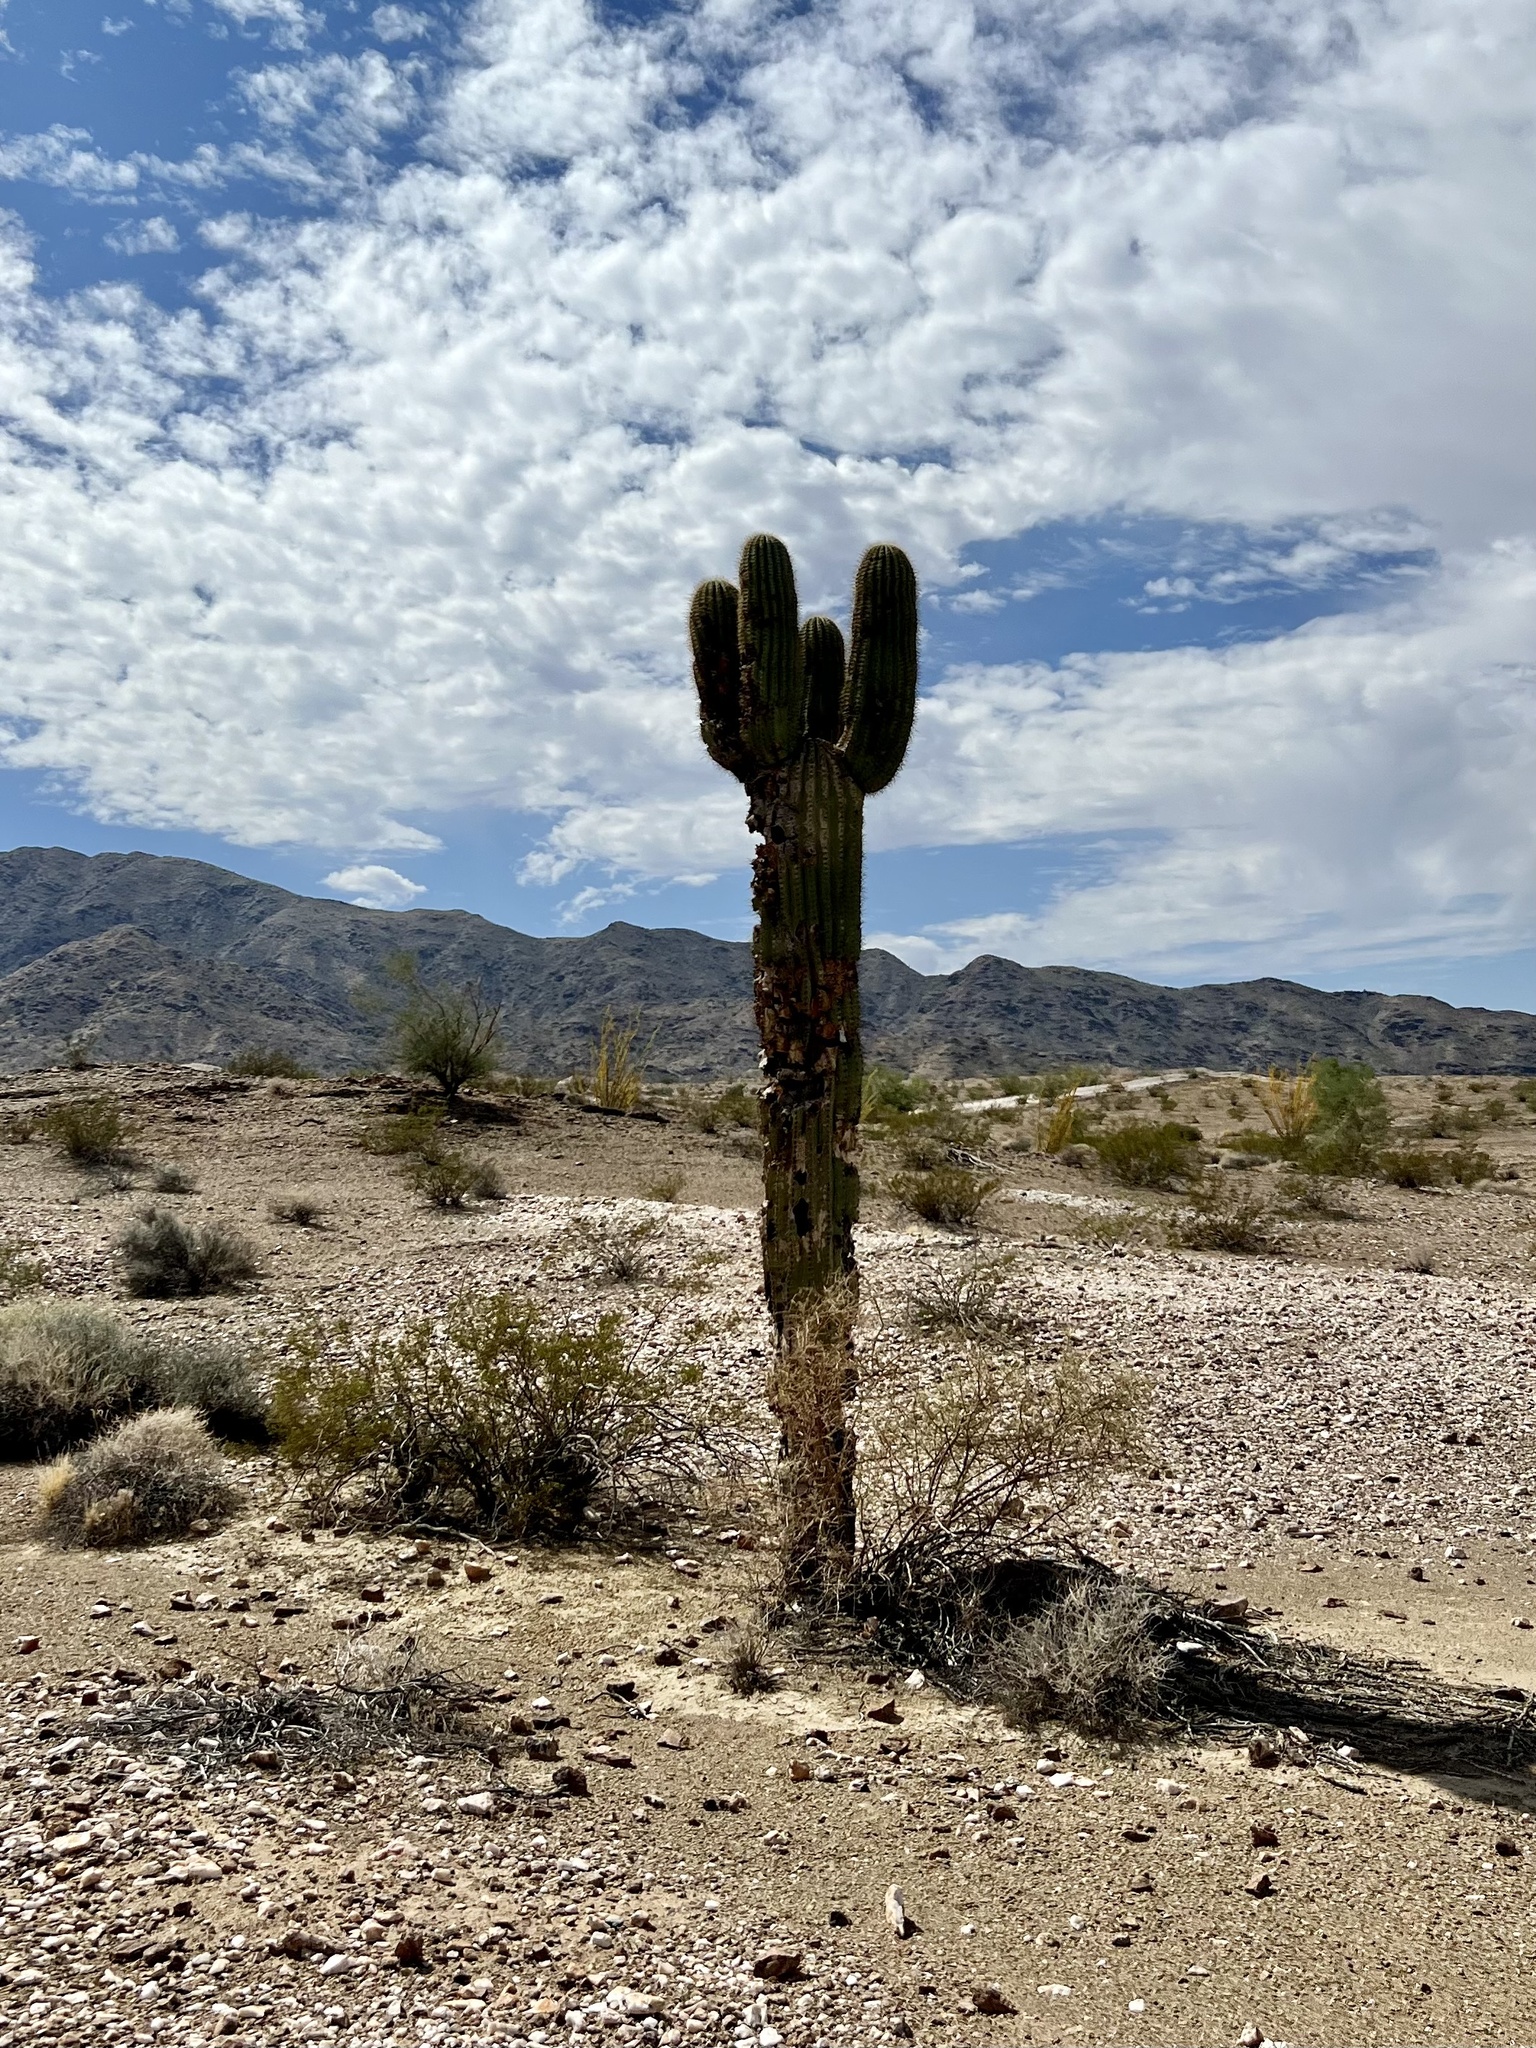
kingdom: Plantae
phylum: Tracheophyta
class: Magnoliopsida
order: Caryophyllales
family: Cactaceae
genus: Carnegiea
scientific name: Carnegiea gigantea
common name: Saguaro
